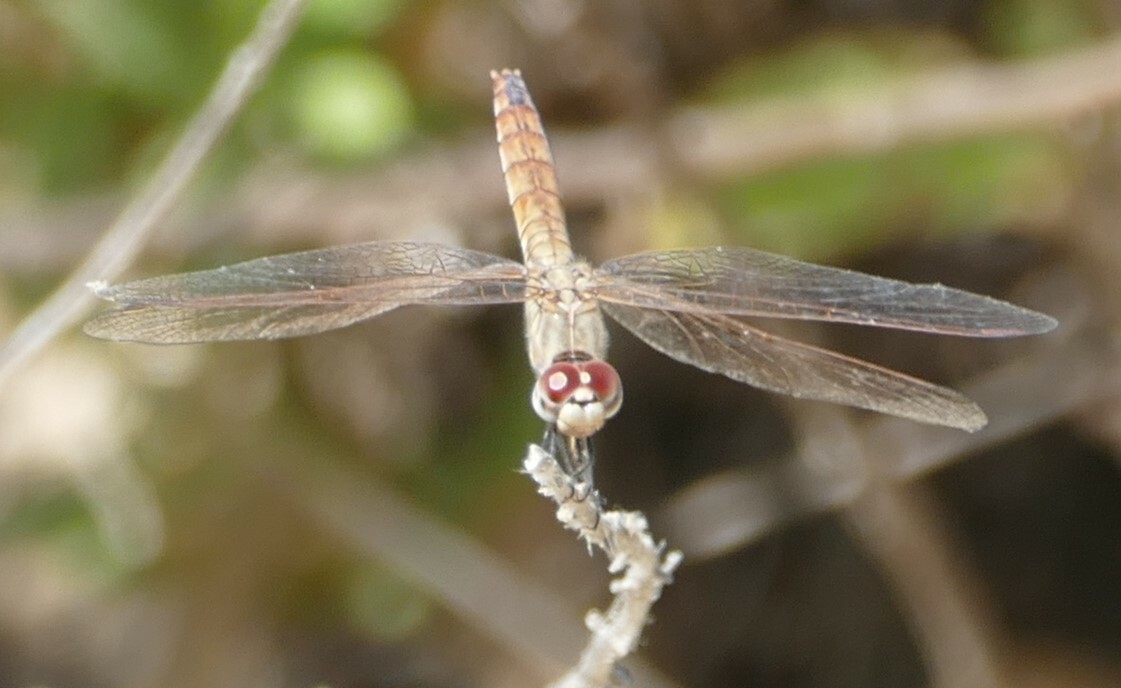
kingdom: Animalia
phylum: Arthropoda
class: Insecta
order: Odonata
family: Libellulidae
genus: Trithemis
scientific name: Trithemis annulata
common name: Violet dropwing
